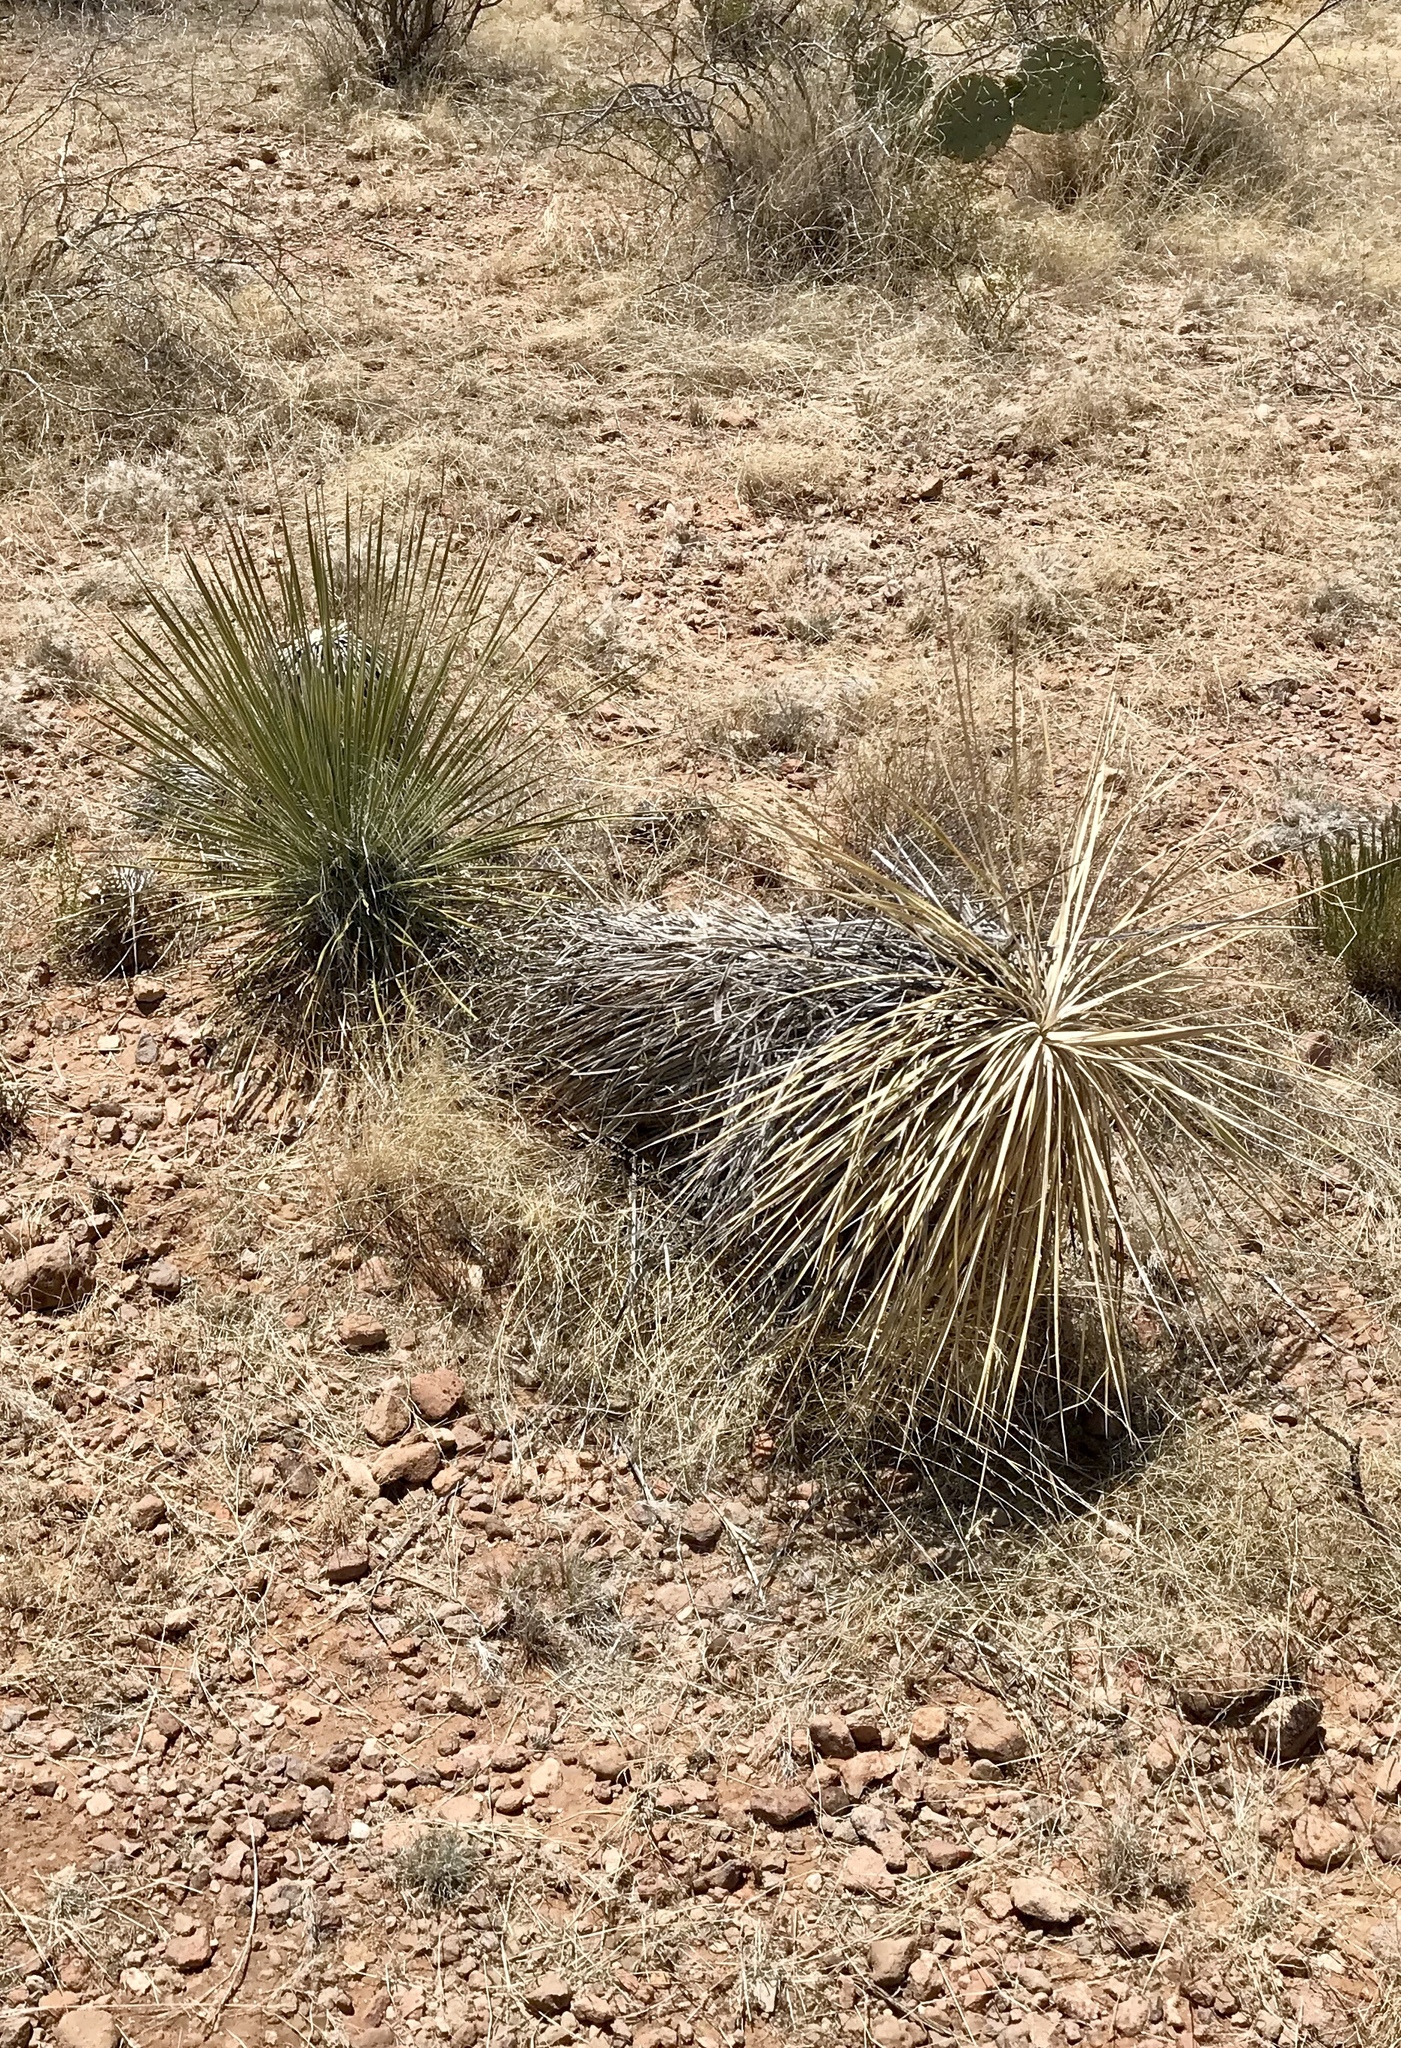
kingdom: Plantae
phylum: Tracheophyta
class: Liliopsida
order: Asparagales
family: Asparagaceae
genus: Yucca
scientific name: Yucca elata
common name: Palmella
